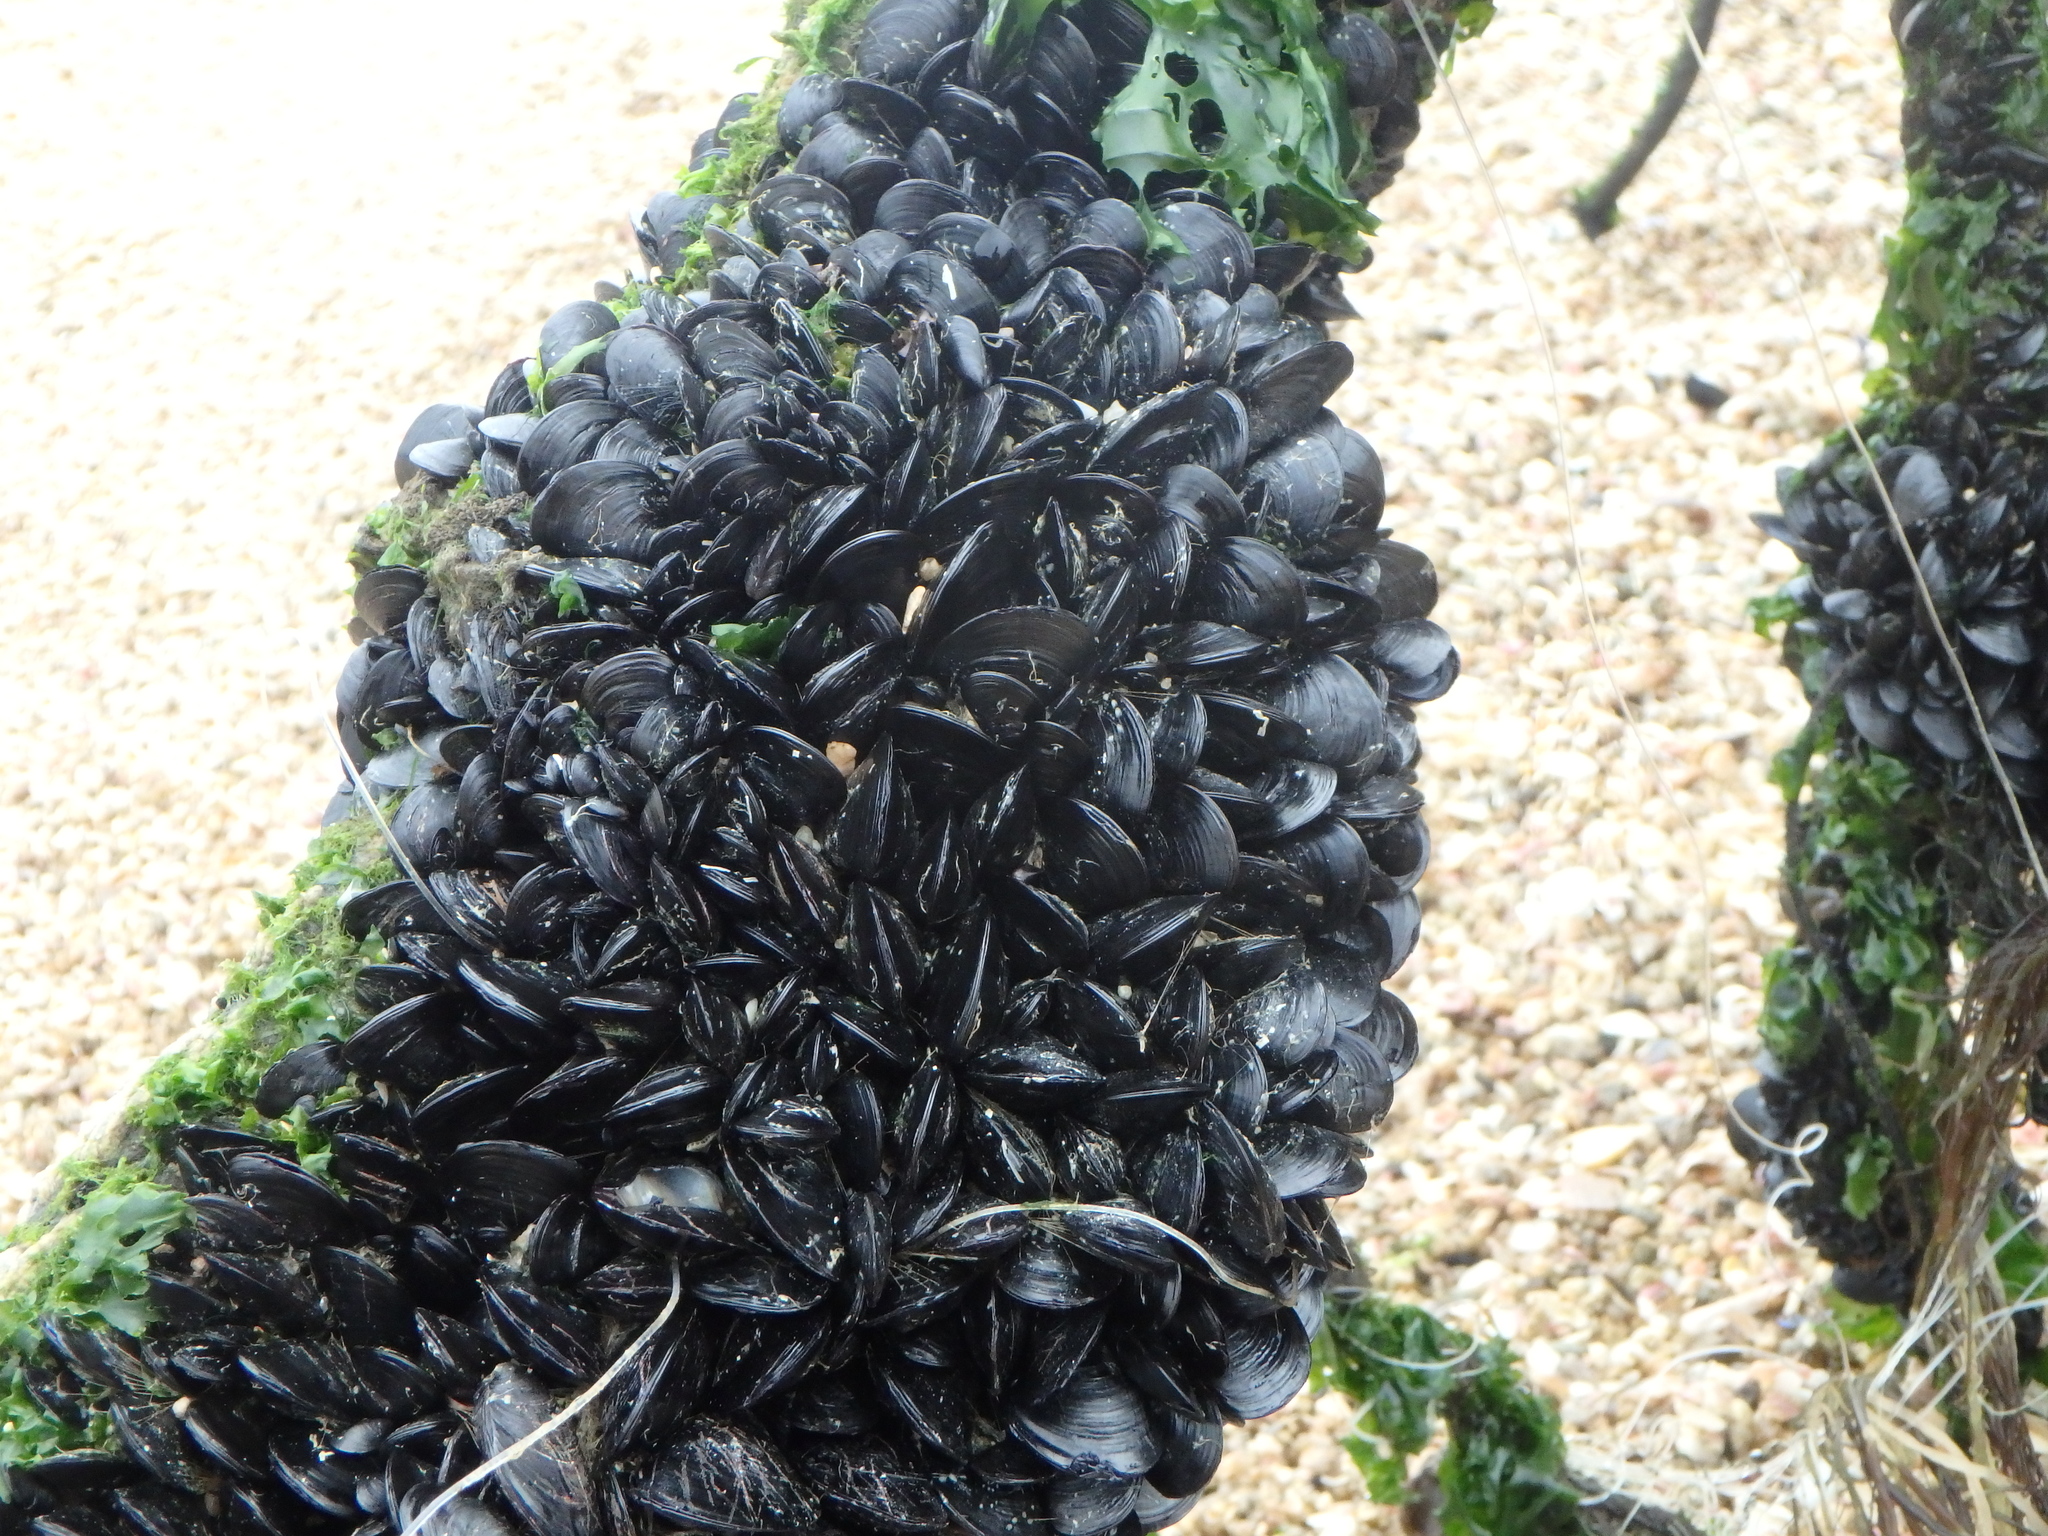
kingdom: Animalia
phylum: Mollusca
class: Bivalvia
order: Mytilida
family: Mytilidae
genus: Mytilus
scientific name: Mytilus galloprovincialis
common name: Mediterranean mussel
